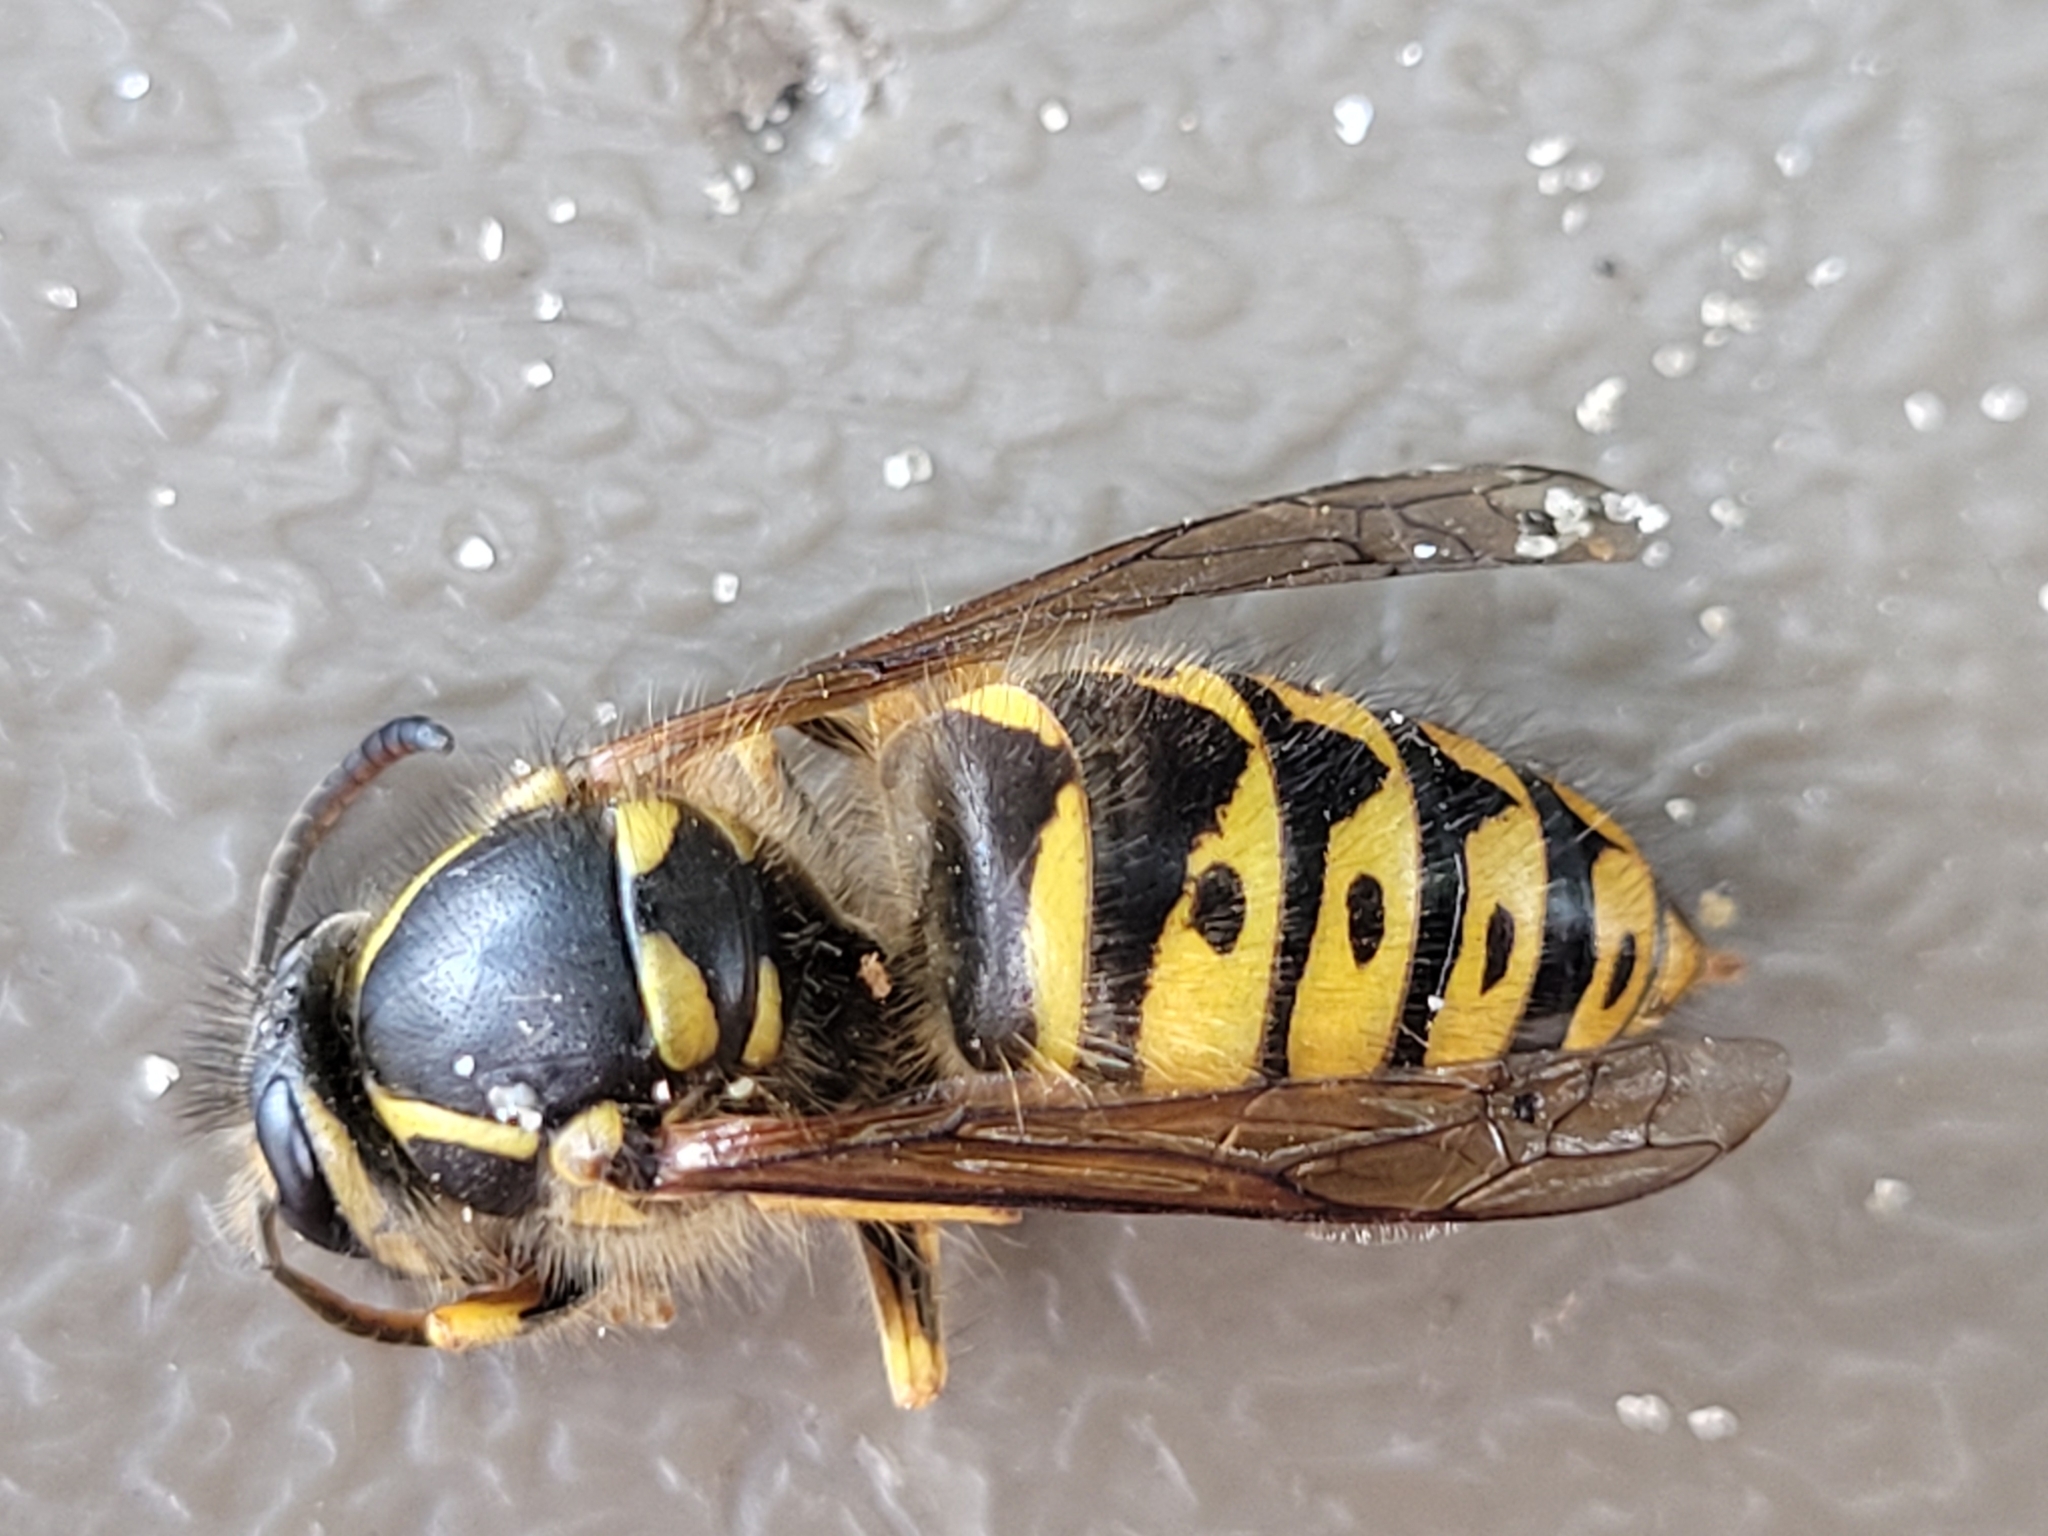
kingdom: Animalia
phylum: Arthropoda
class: Insecta
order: Hymenoptera
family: Vespidae
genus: Dolichovespula
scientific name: Dolichovespula arenaria
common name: Aerial yellowjacket
